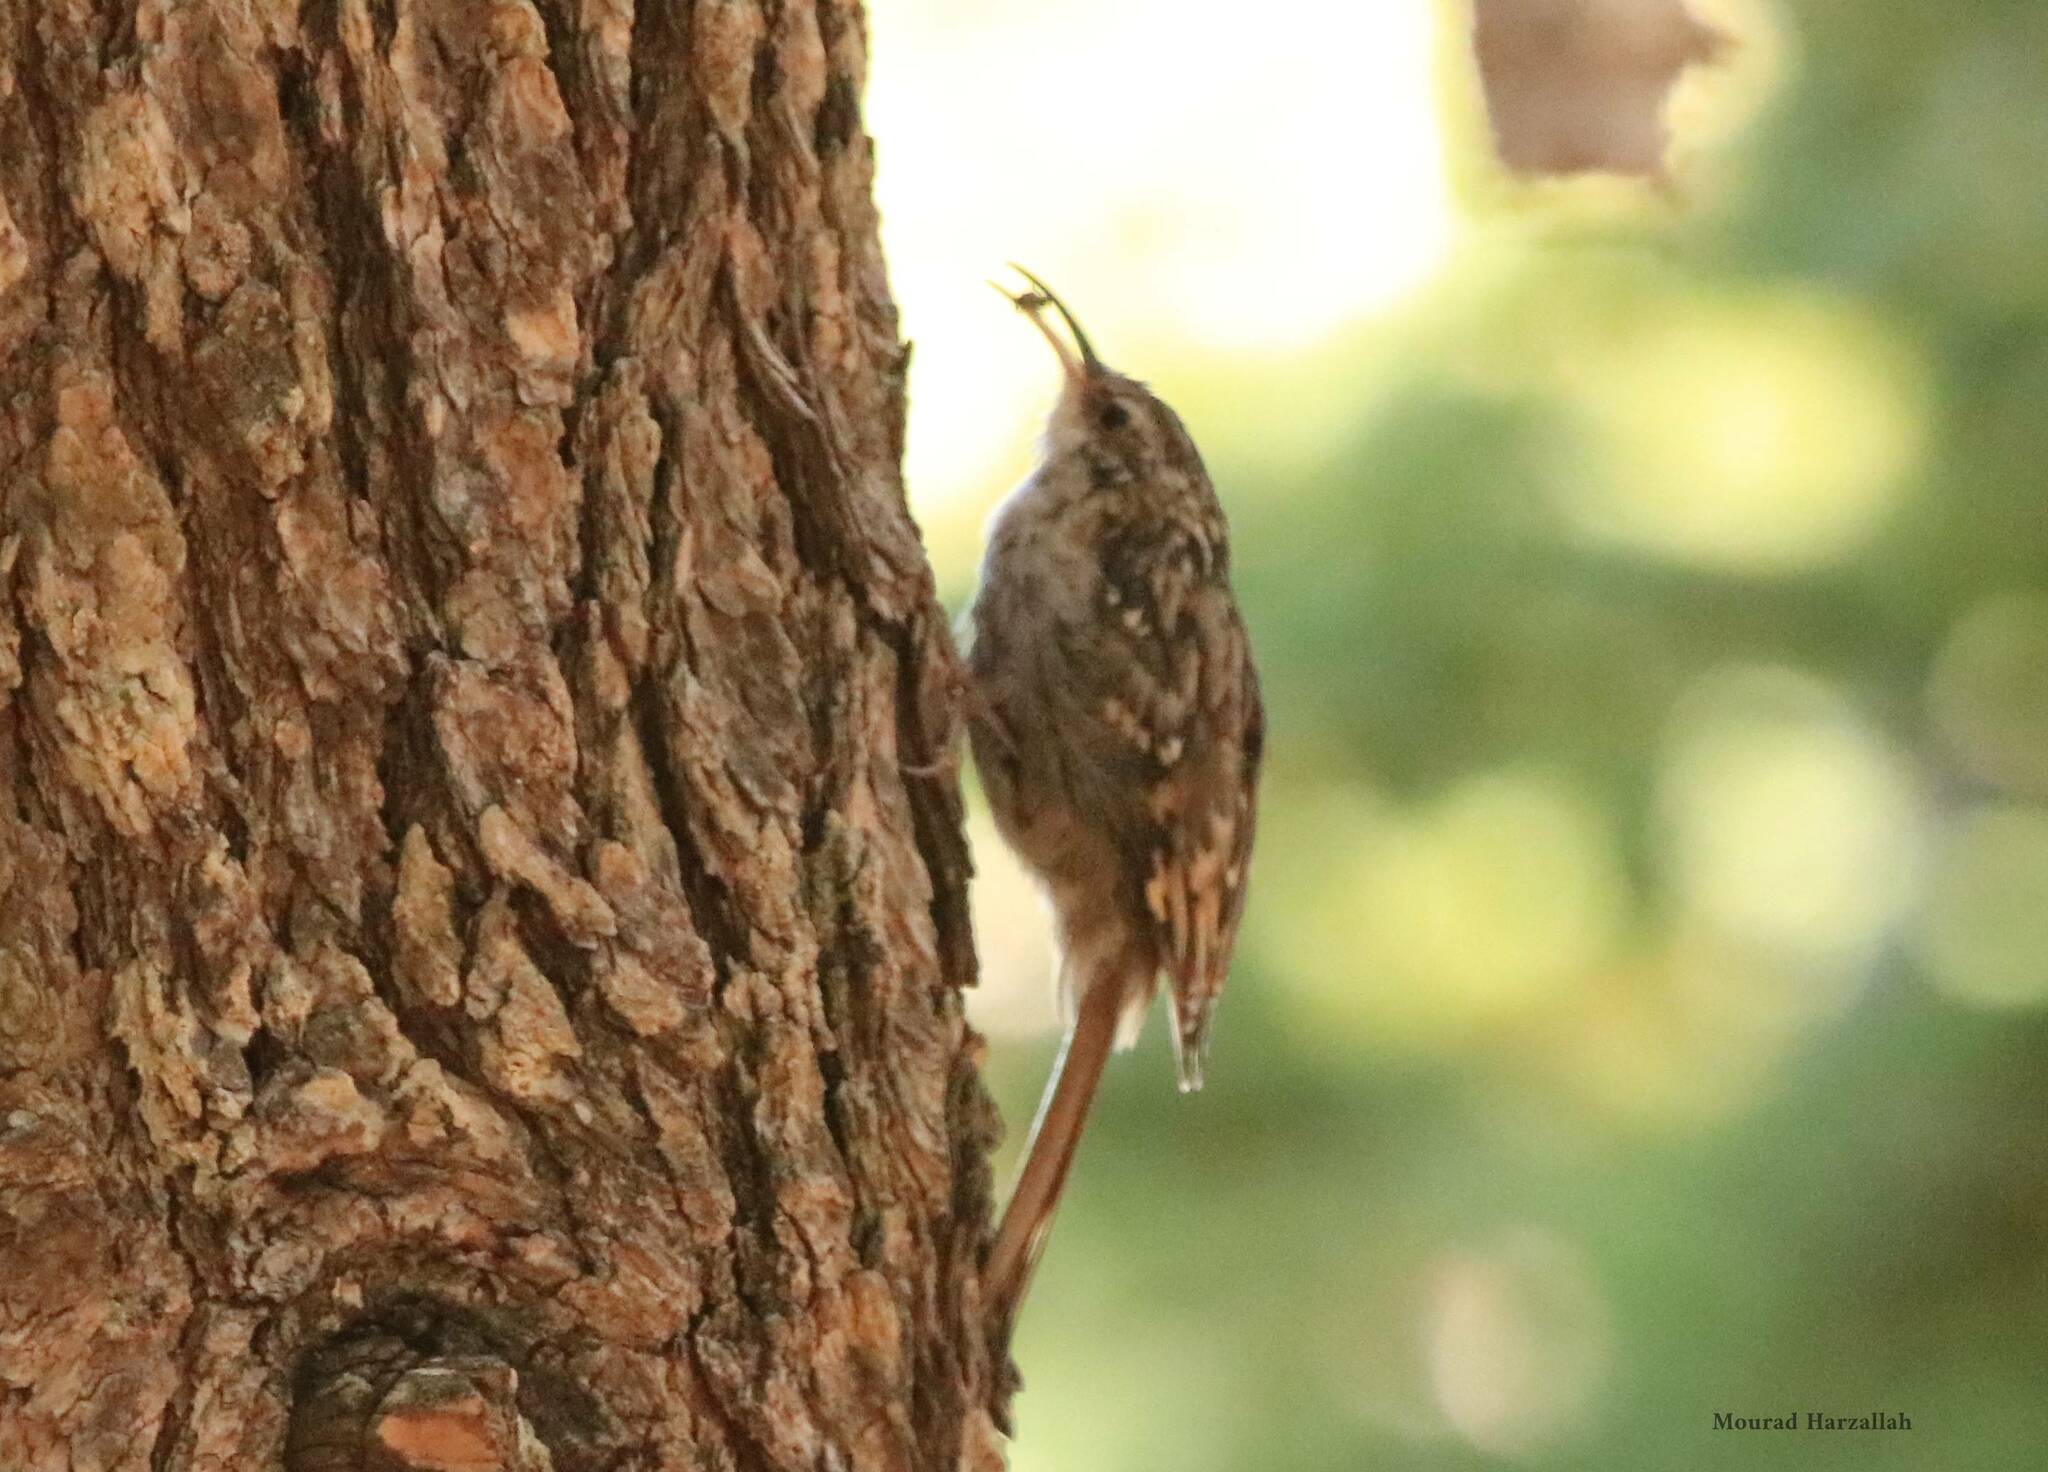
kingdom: Animalia
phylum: Chordata
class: Aves
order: Passeriformes
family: Certhiidae
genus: Certhia
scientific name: Certhia brachydactyla
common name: Short-toed treecreeper
